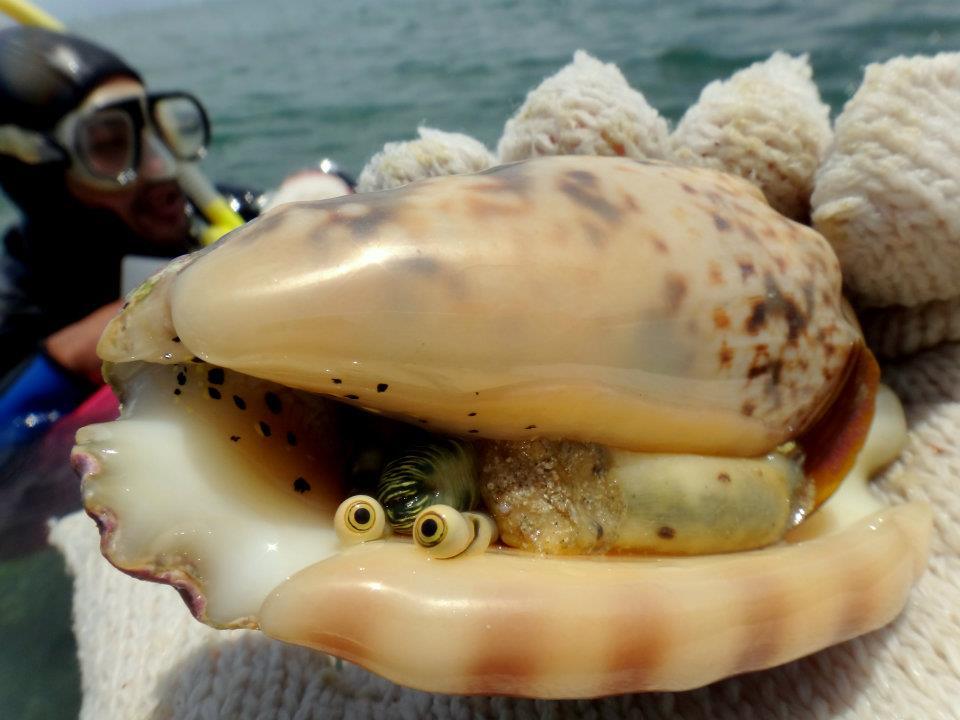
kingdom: Animalia
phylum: Mollusca
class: Gastropoda
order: Littorinimorpha
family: Strombidae
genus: Lentigo
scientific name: Lentigo lentiginosus
